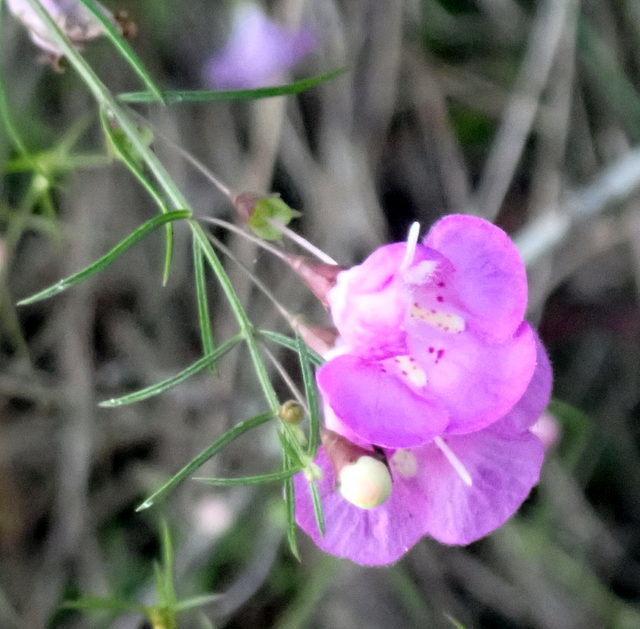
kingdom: Plantae
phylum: Tracheophyta
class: Magnoliopsida
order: Lamiales
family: Orobanchaceae
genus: Agalinis
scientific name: Agalinis tenuifolia
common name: Slender agalinis
